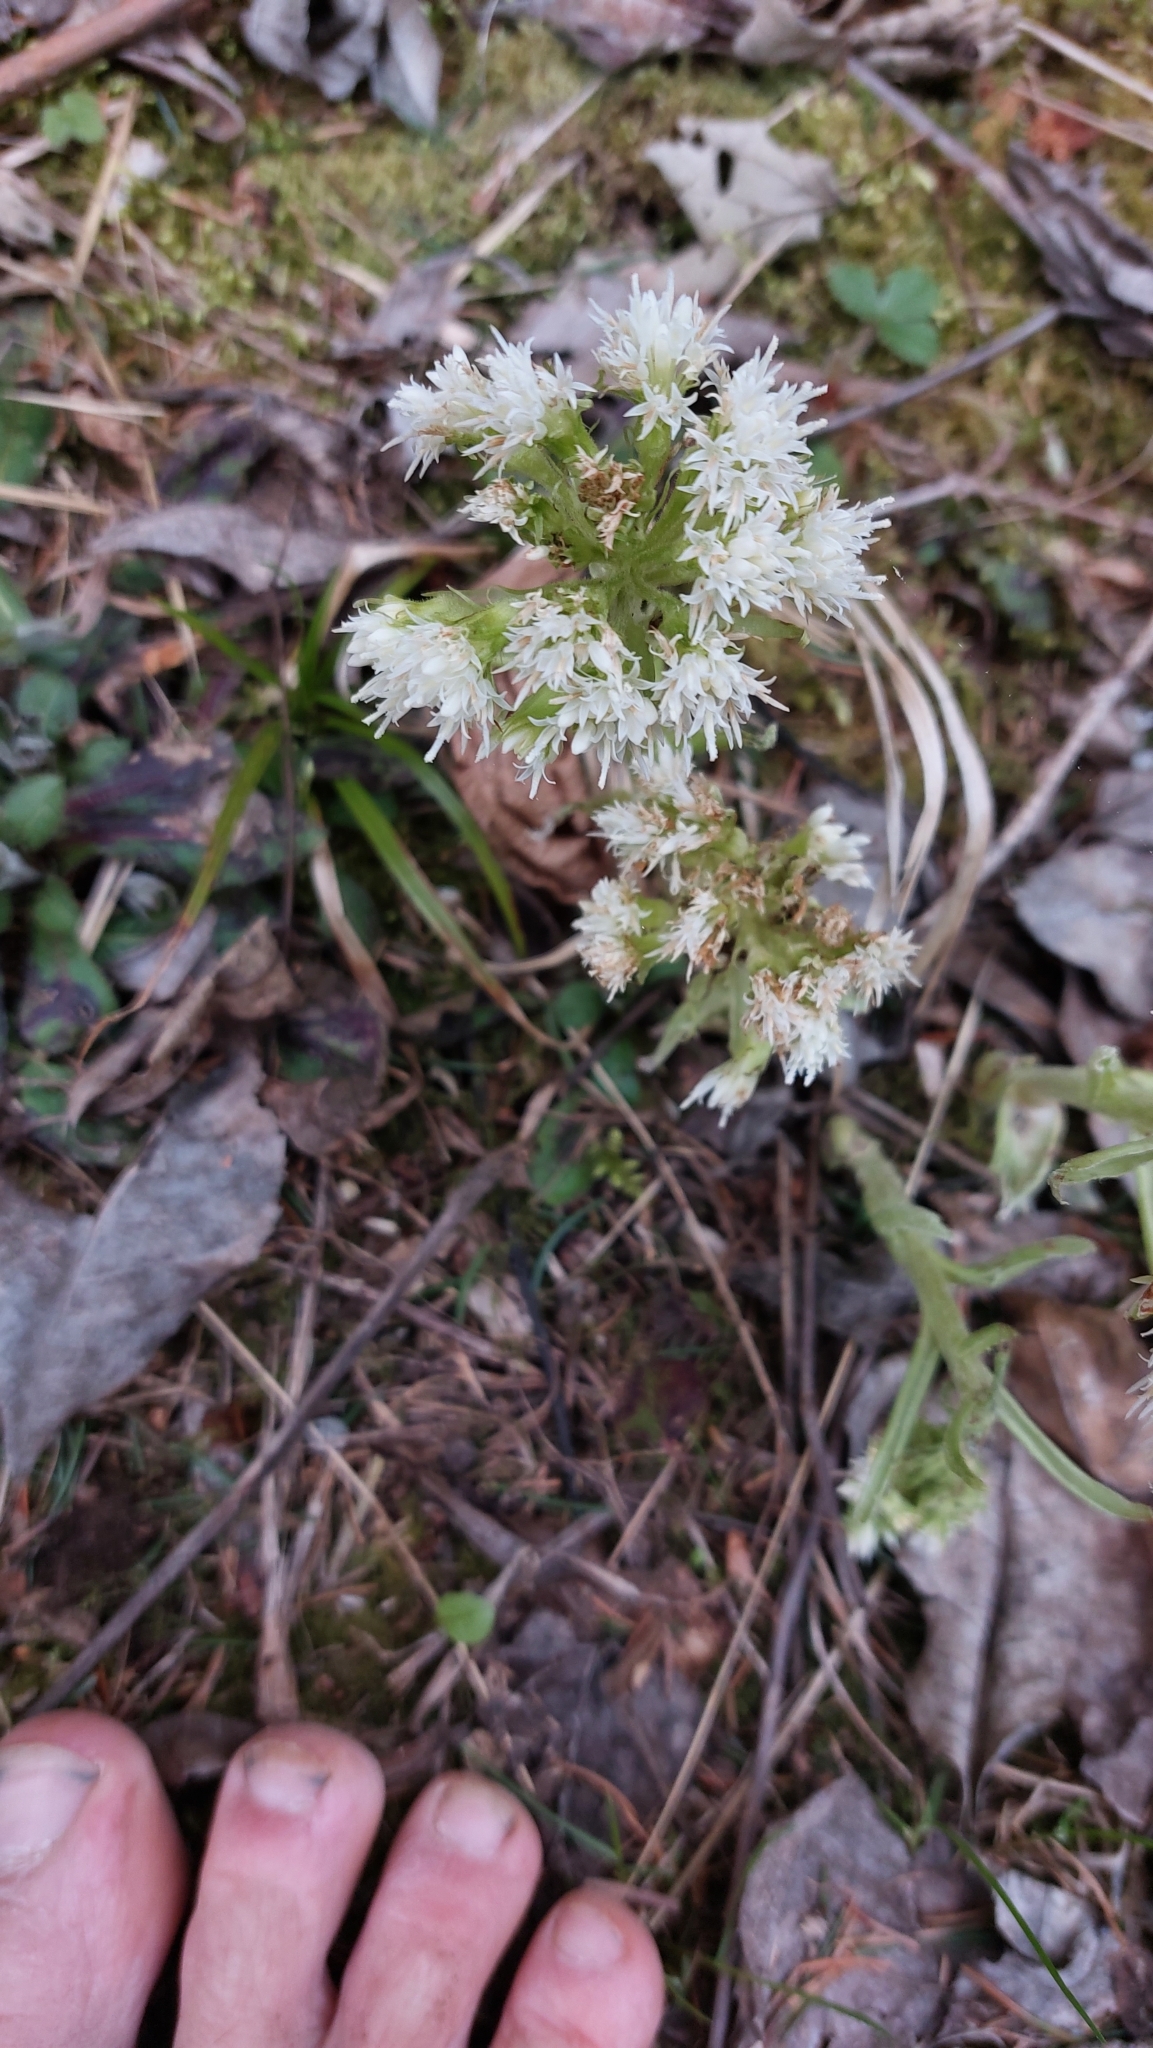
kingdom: Plantae
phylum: Tracheophyta
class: Magnoliopsida
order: Asterales
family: Asteraceae
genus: Petasites
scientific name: Petasites albus
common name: White butterbur
